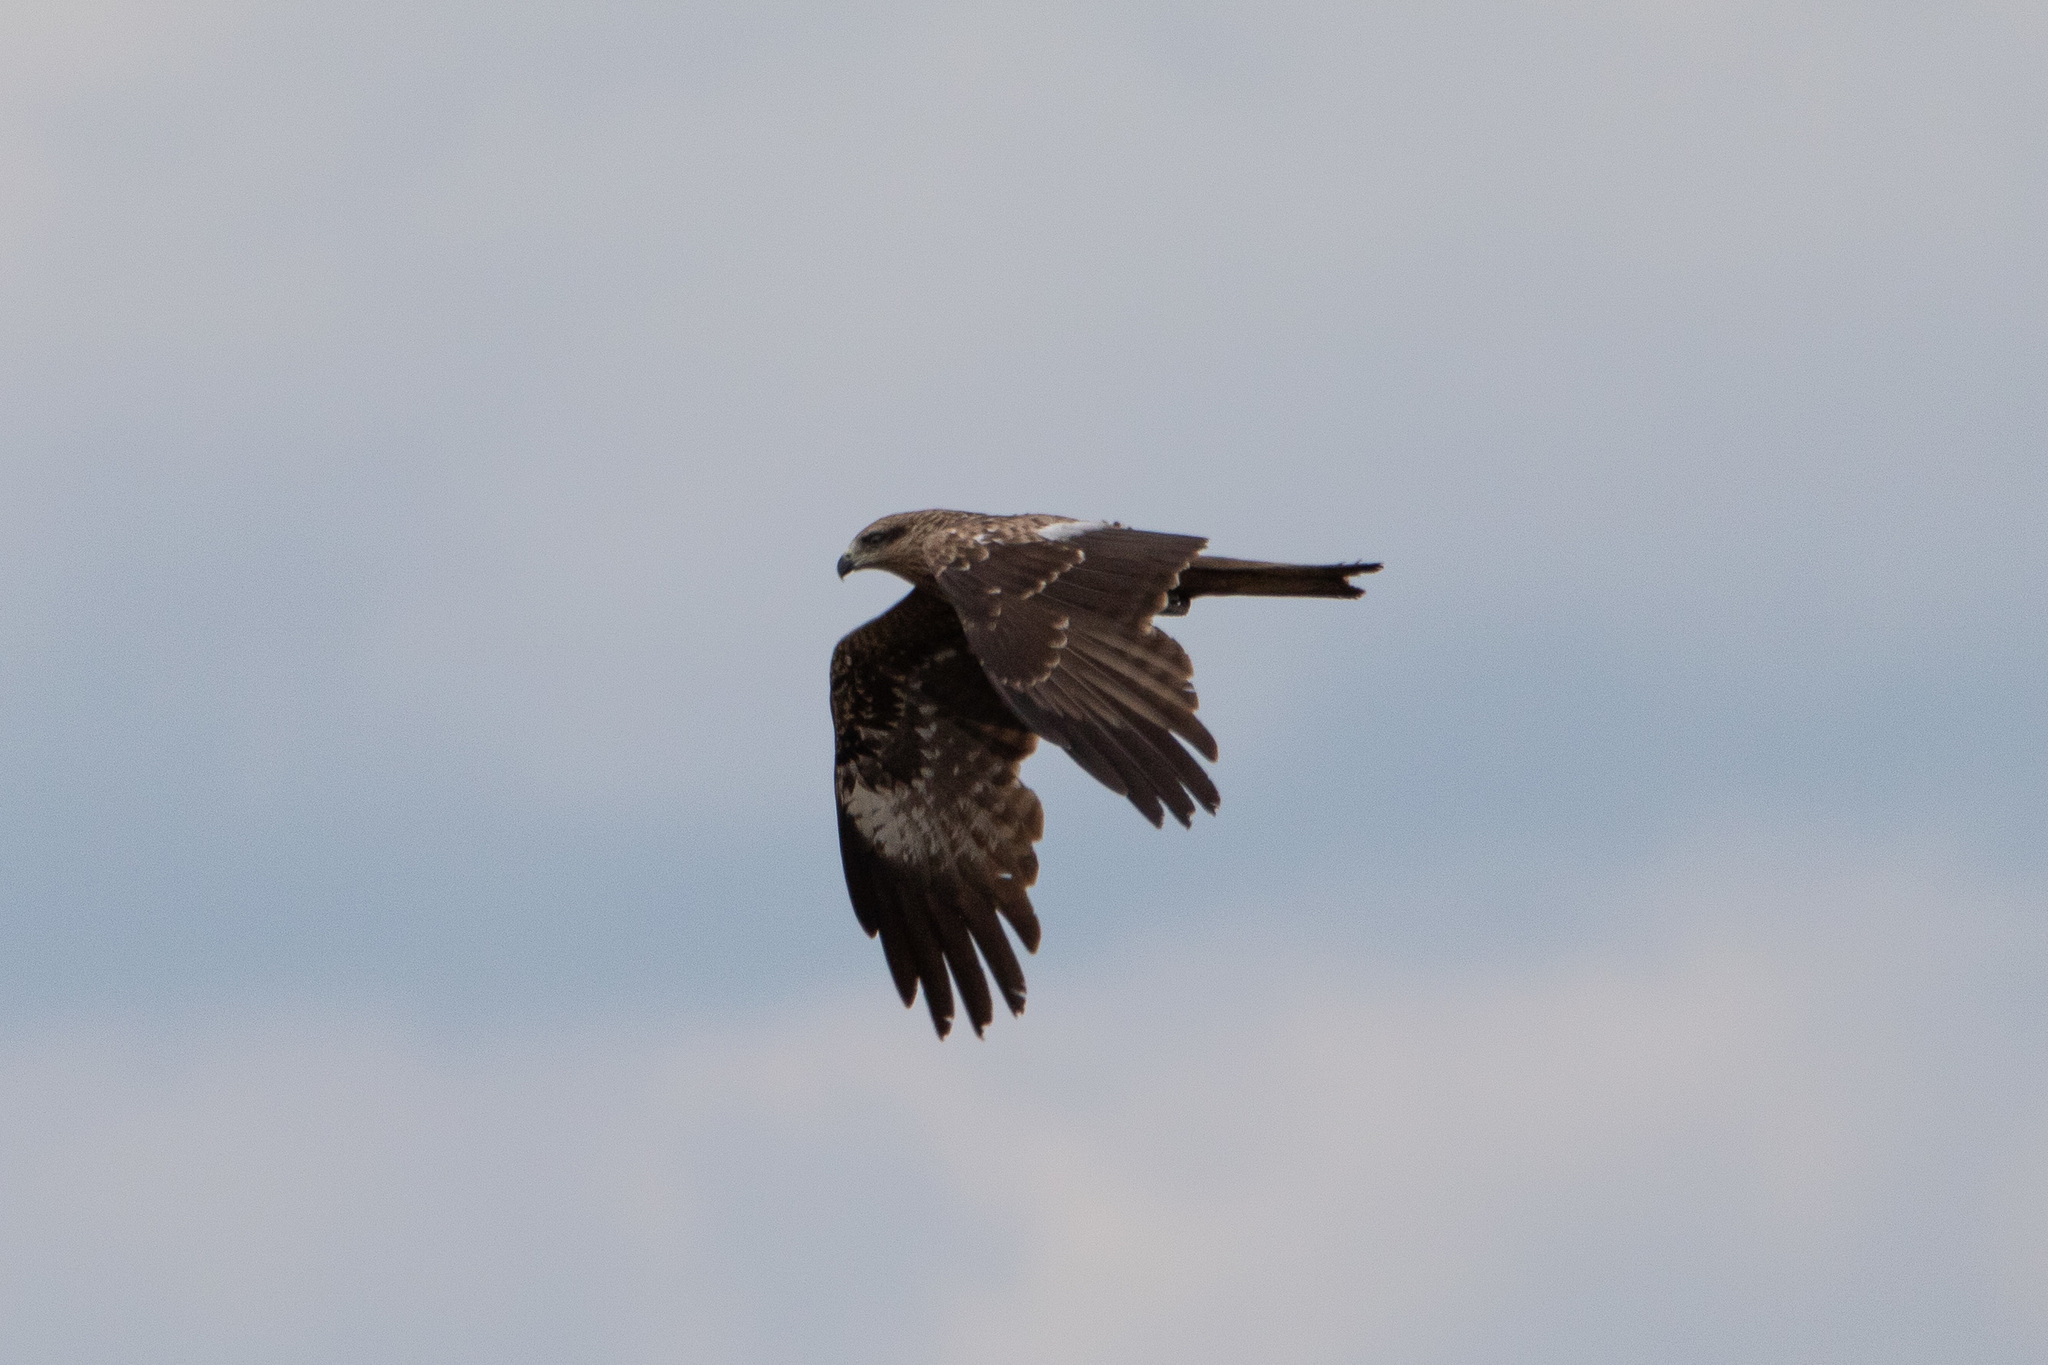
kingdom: Animalia
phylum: Chordata
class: Aves
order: Accipitriformes
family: Accipitridae
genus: Milvus
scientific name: Milvus migrans
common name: Black kite
